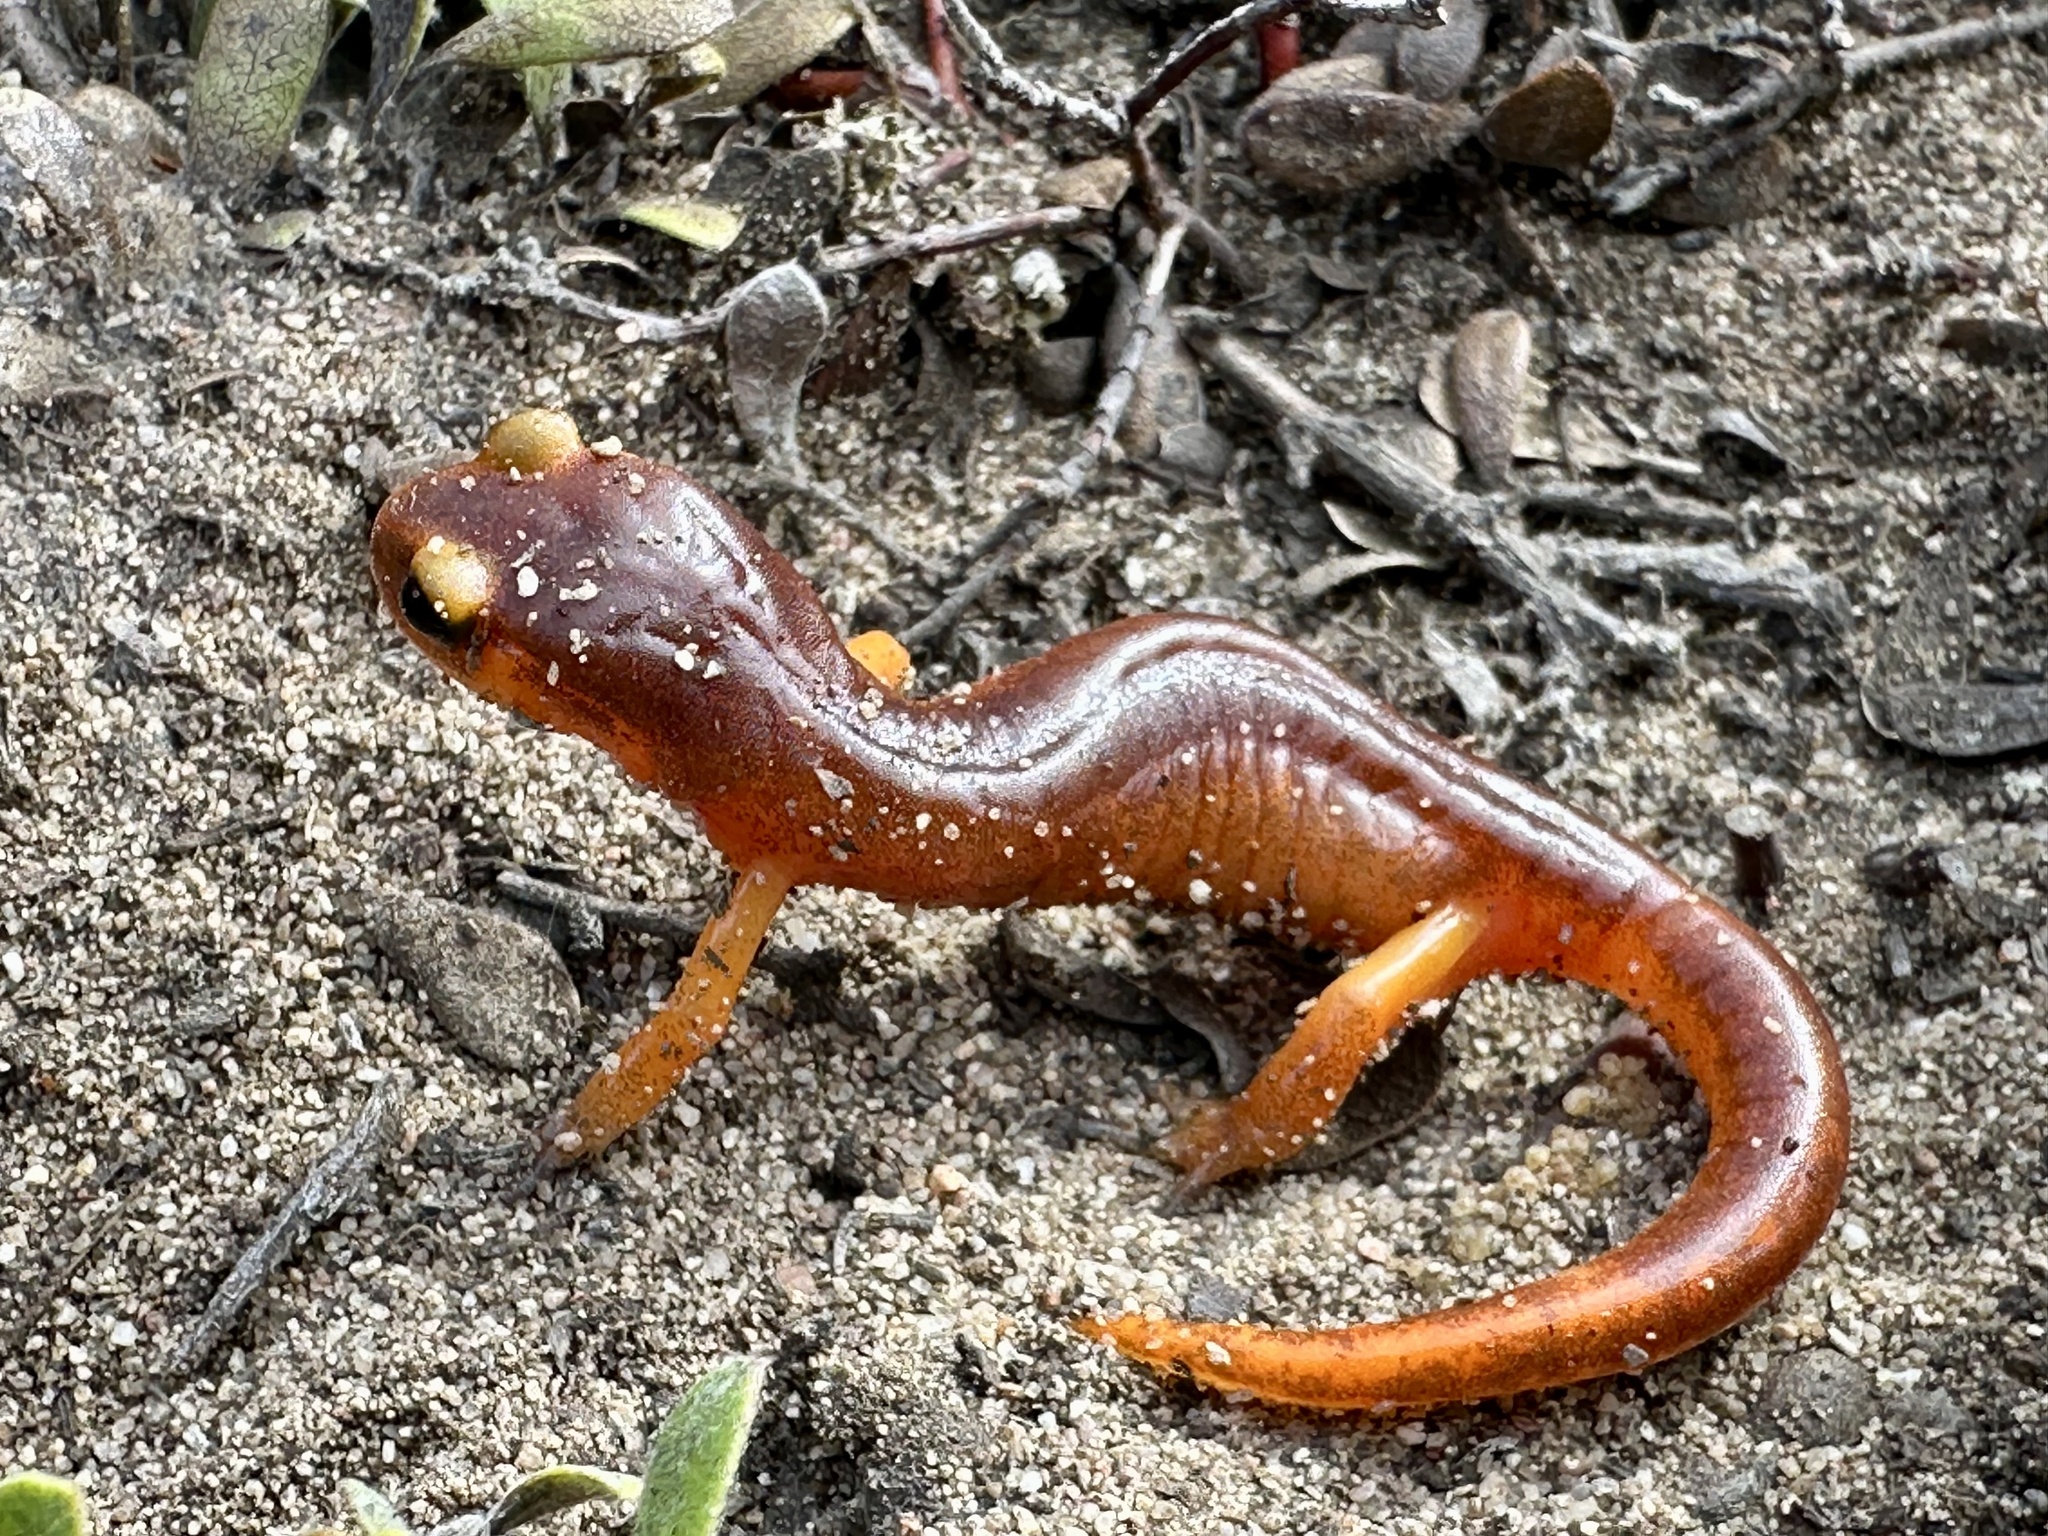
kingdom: Animalia
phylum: Chordata
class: Amphibia
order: Caudata
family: Plethodontidae
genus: Ensatina
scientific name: Ensatina eschscholtzii
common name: Ensatina
